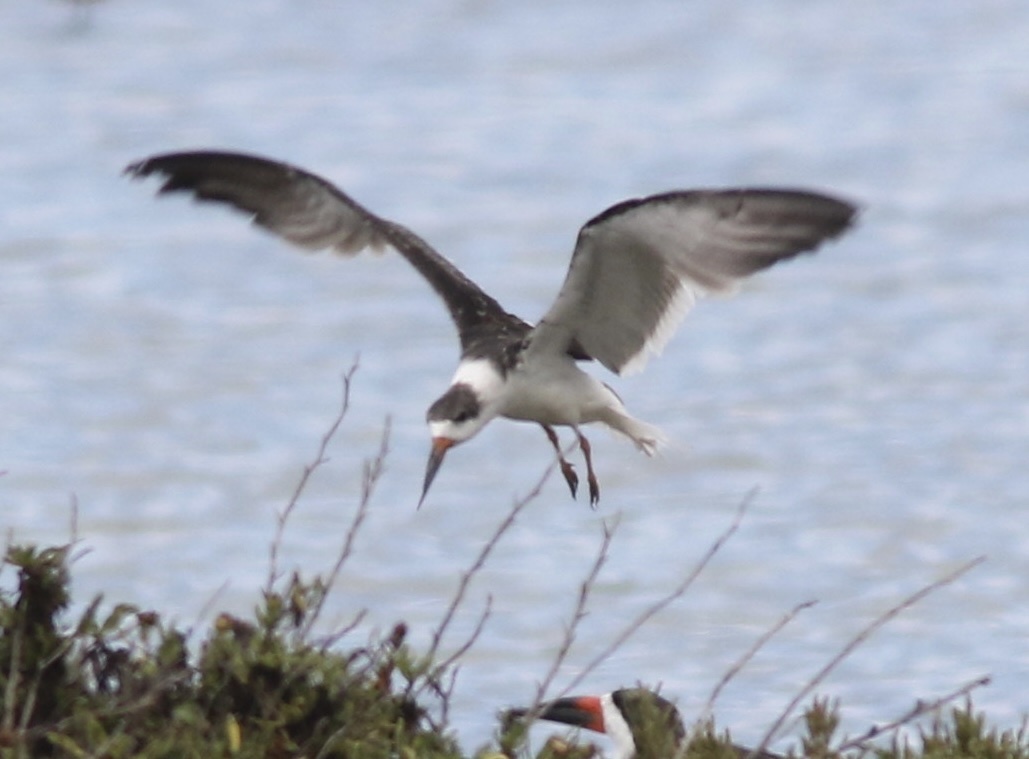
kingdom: Animalia
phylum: Chordata
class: Aves
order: Charadriiformes
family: Laridae
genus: Rynchops
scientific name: Rynchops niger
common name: Black skimmer
